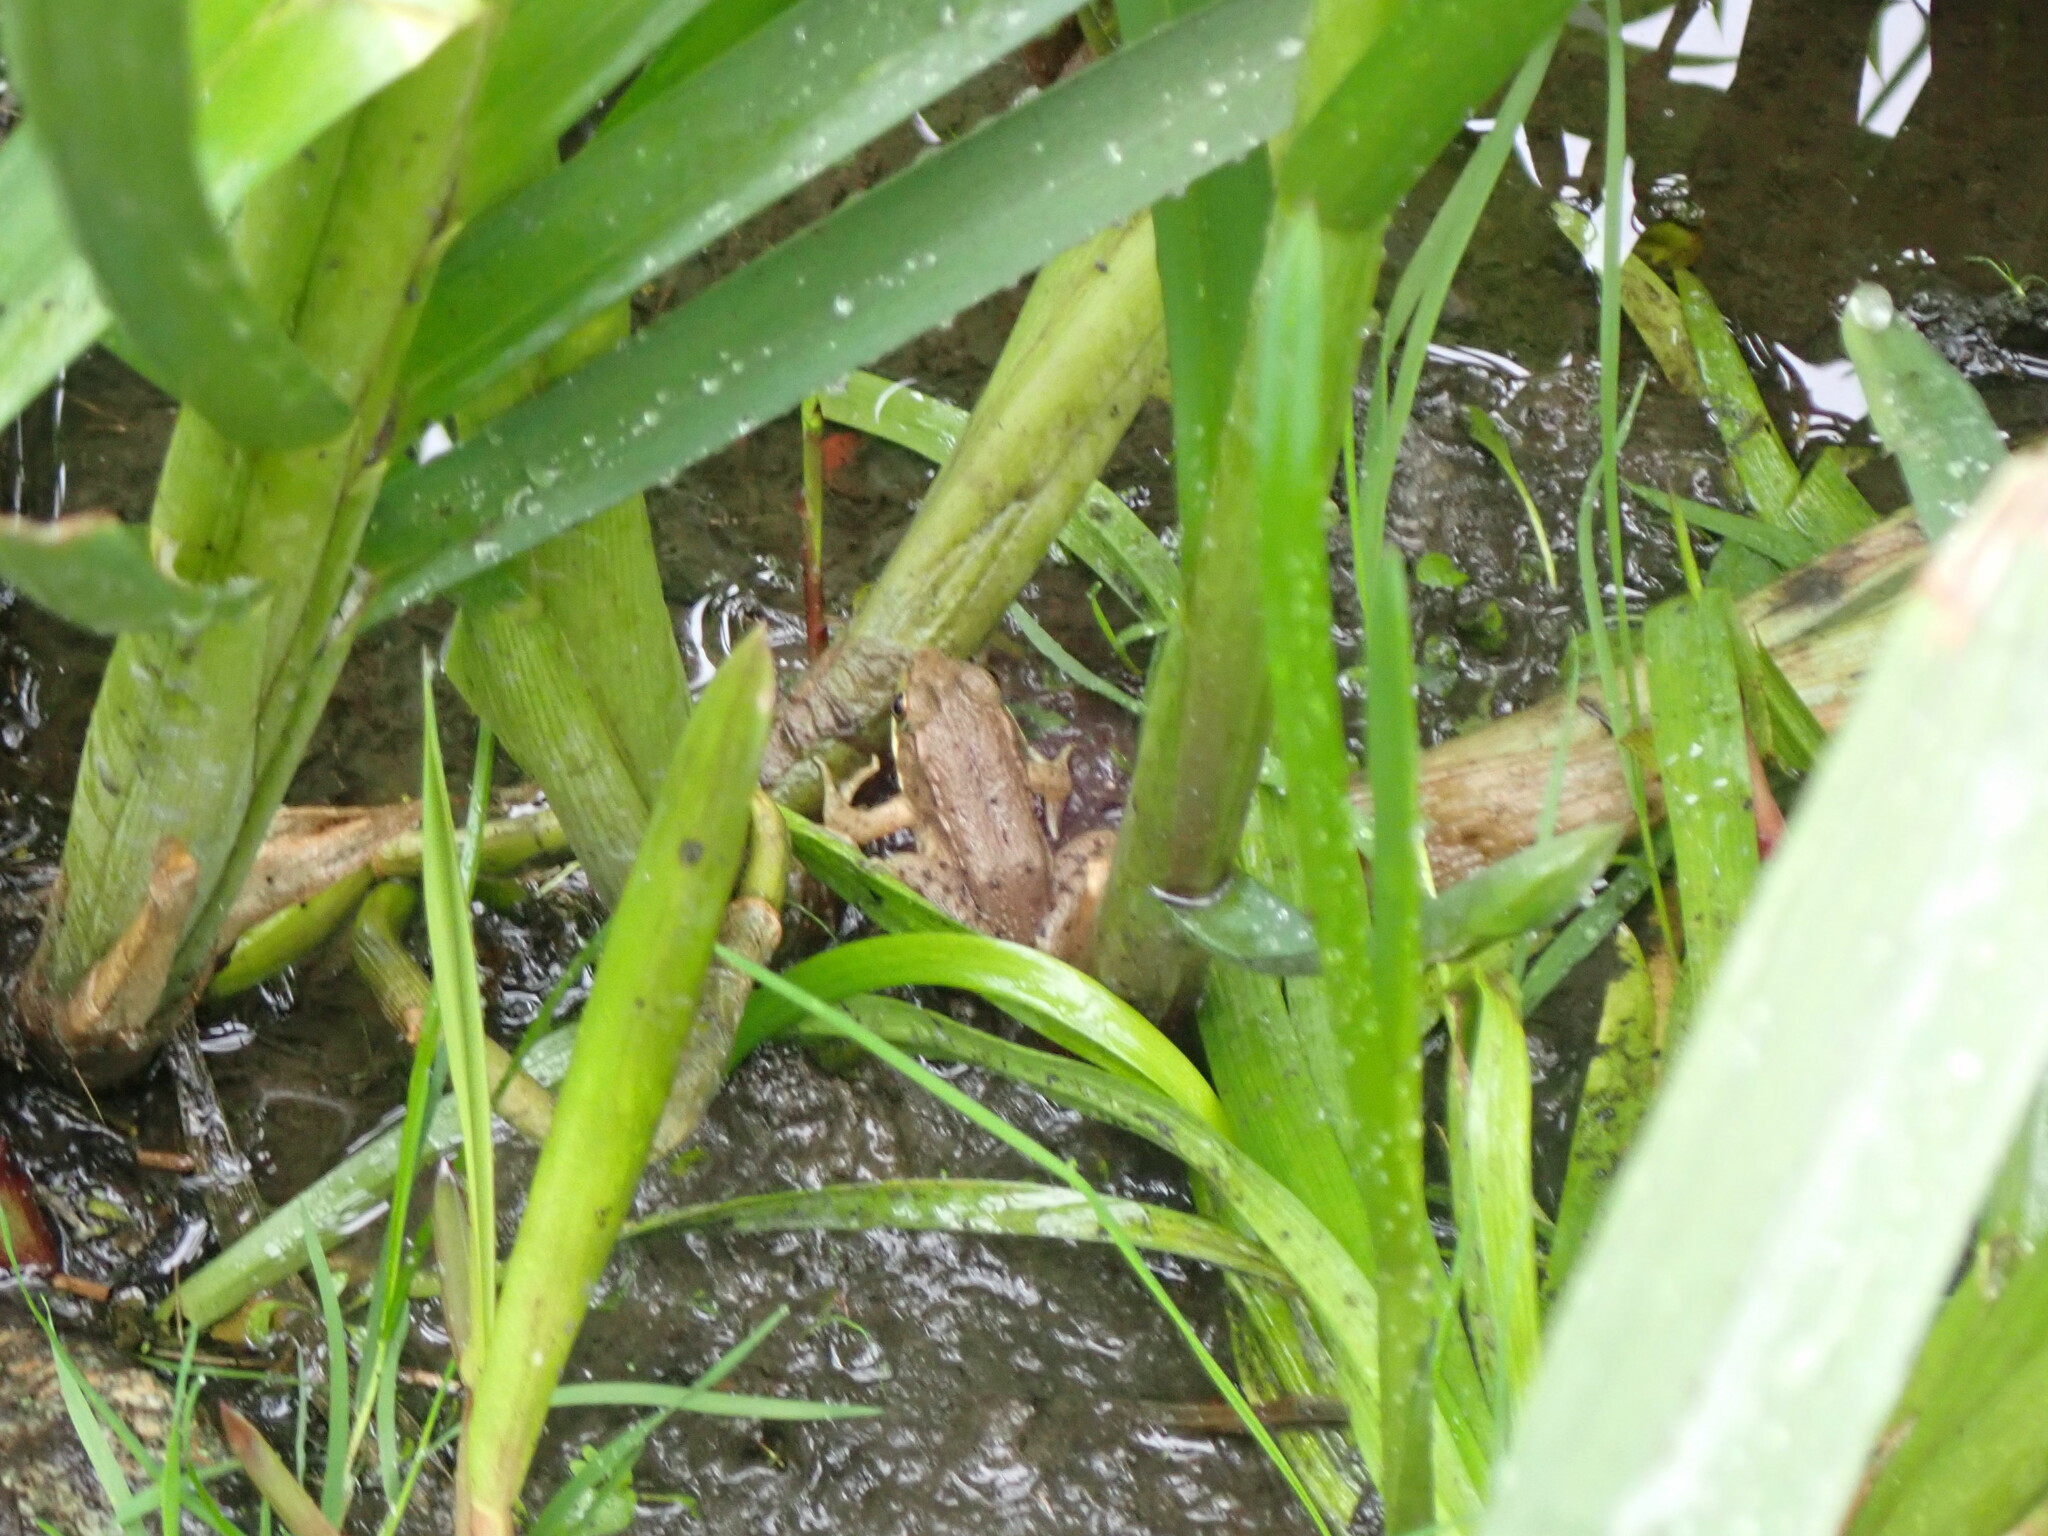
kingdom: Animalia
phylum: Chordata
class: Amphibia
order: Anura
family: Ranidae
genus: Lithobates
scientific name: Lithobates clamitans
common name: Green frog
